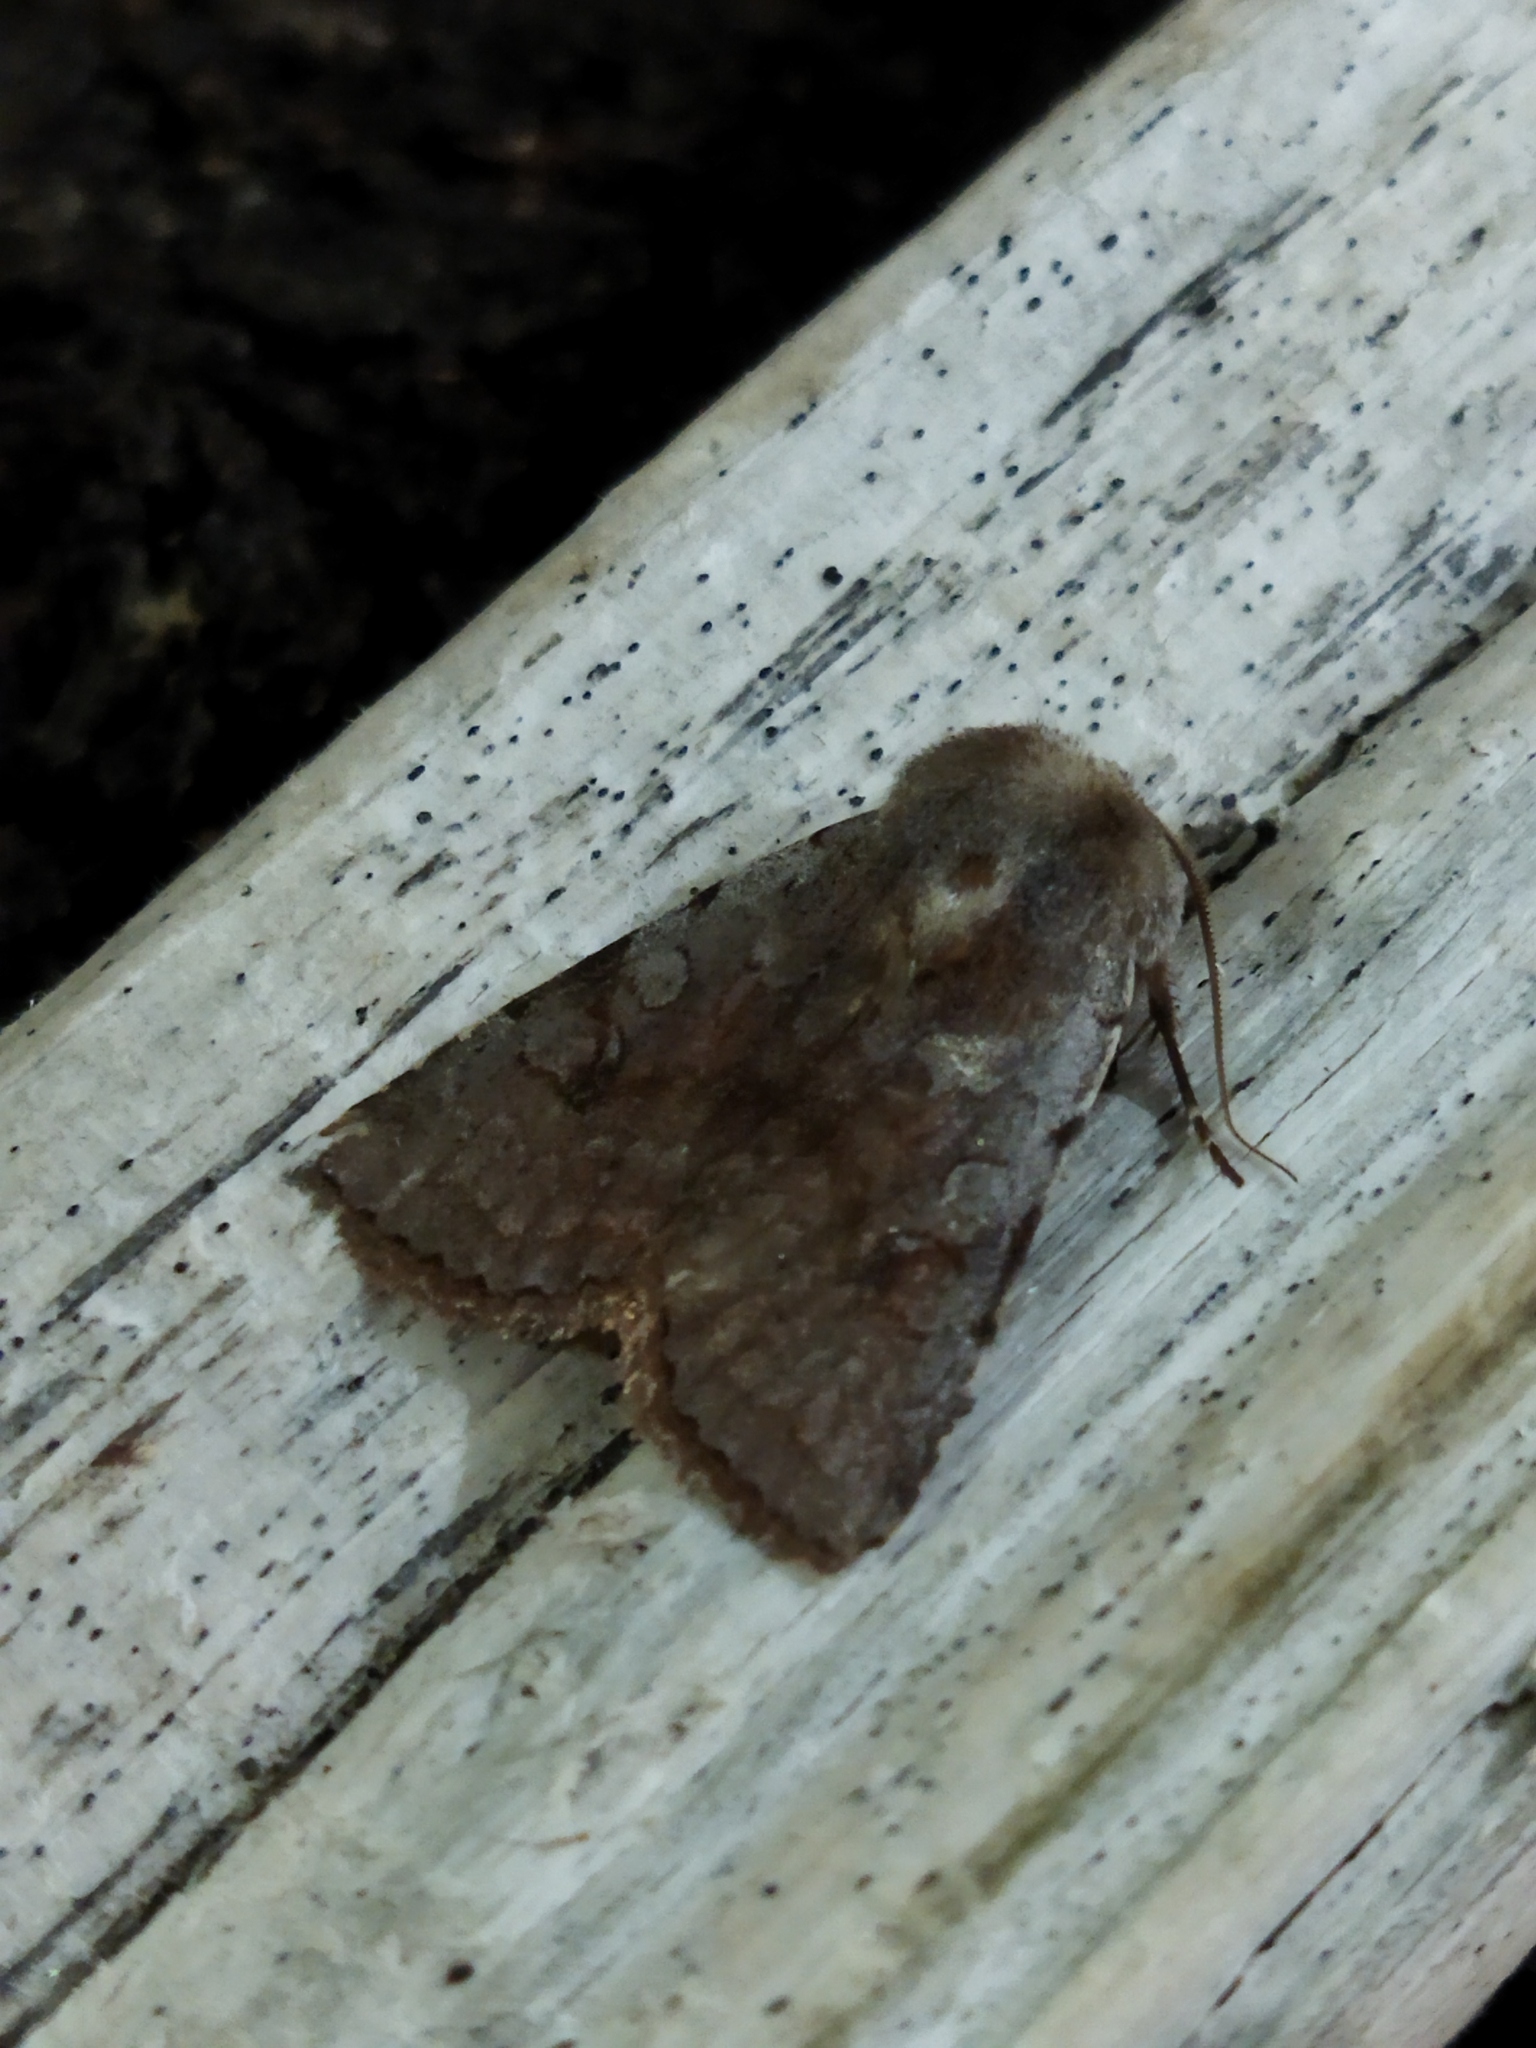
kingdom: Animalia
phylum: Arthropoda
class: Insecta
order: Lepidoptera
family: Noctuidae
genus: Cerastis
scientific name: Cerastis rubricosa
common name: Red chestnut
